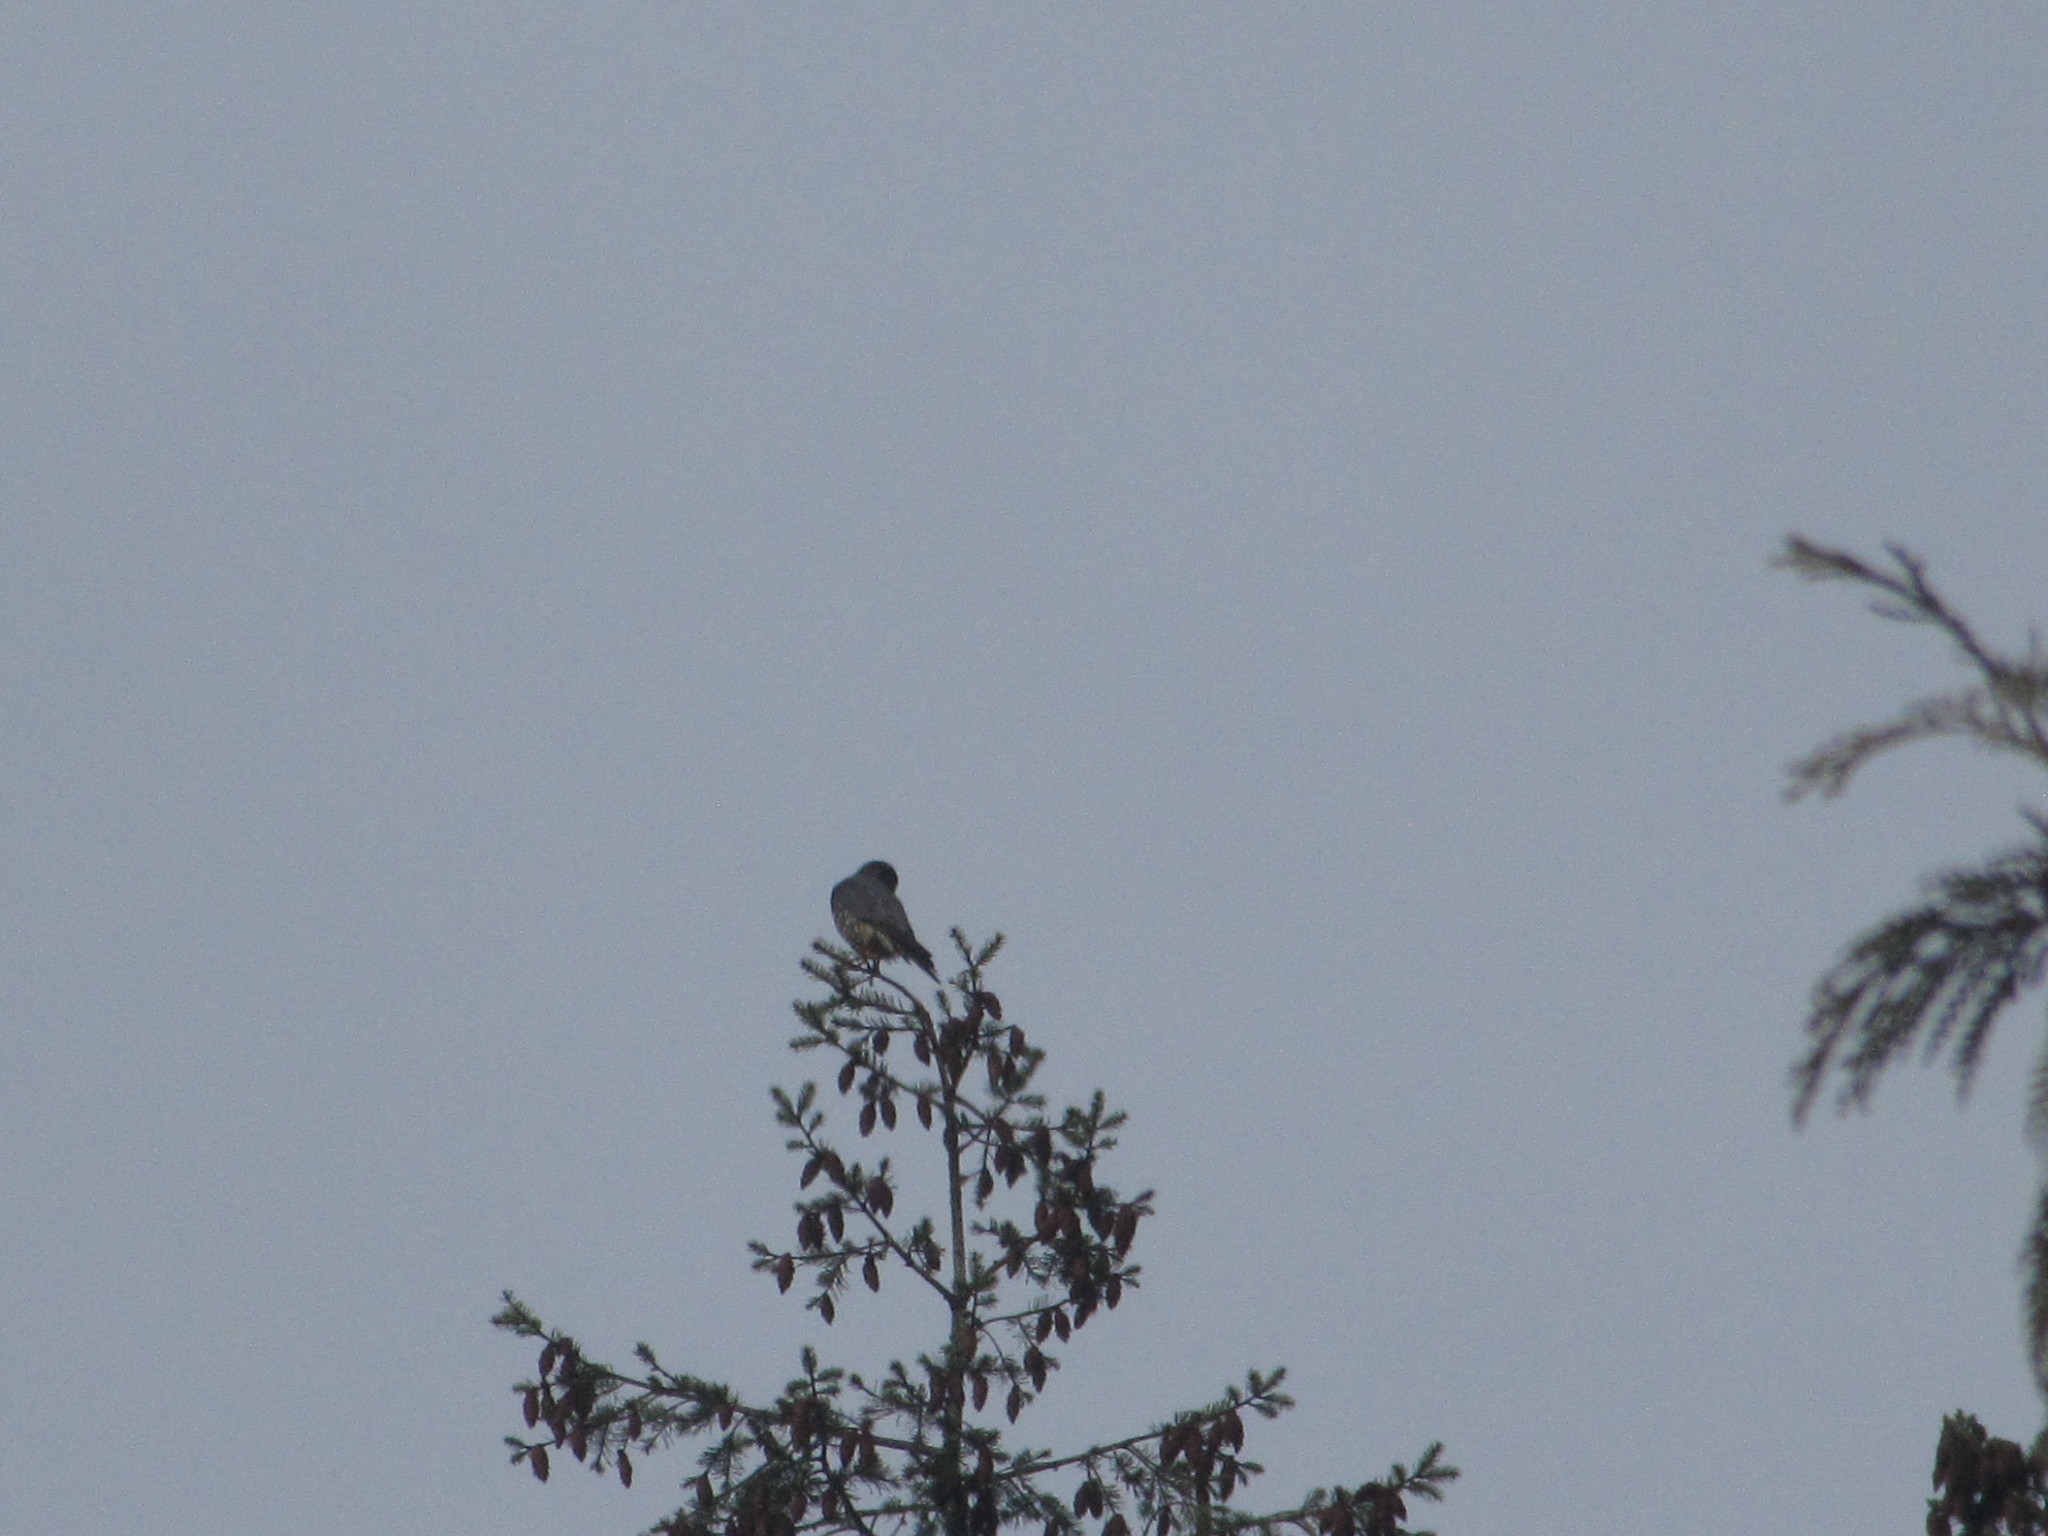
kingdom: Animalia
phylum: Chordata
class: Aves
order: Falconiformes
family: Falconidae
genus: Falco
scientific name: Falco columbarius
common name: Merlin
